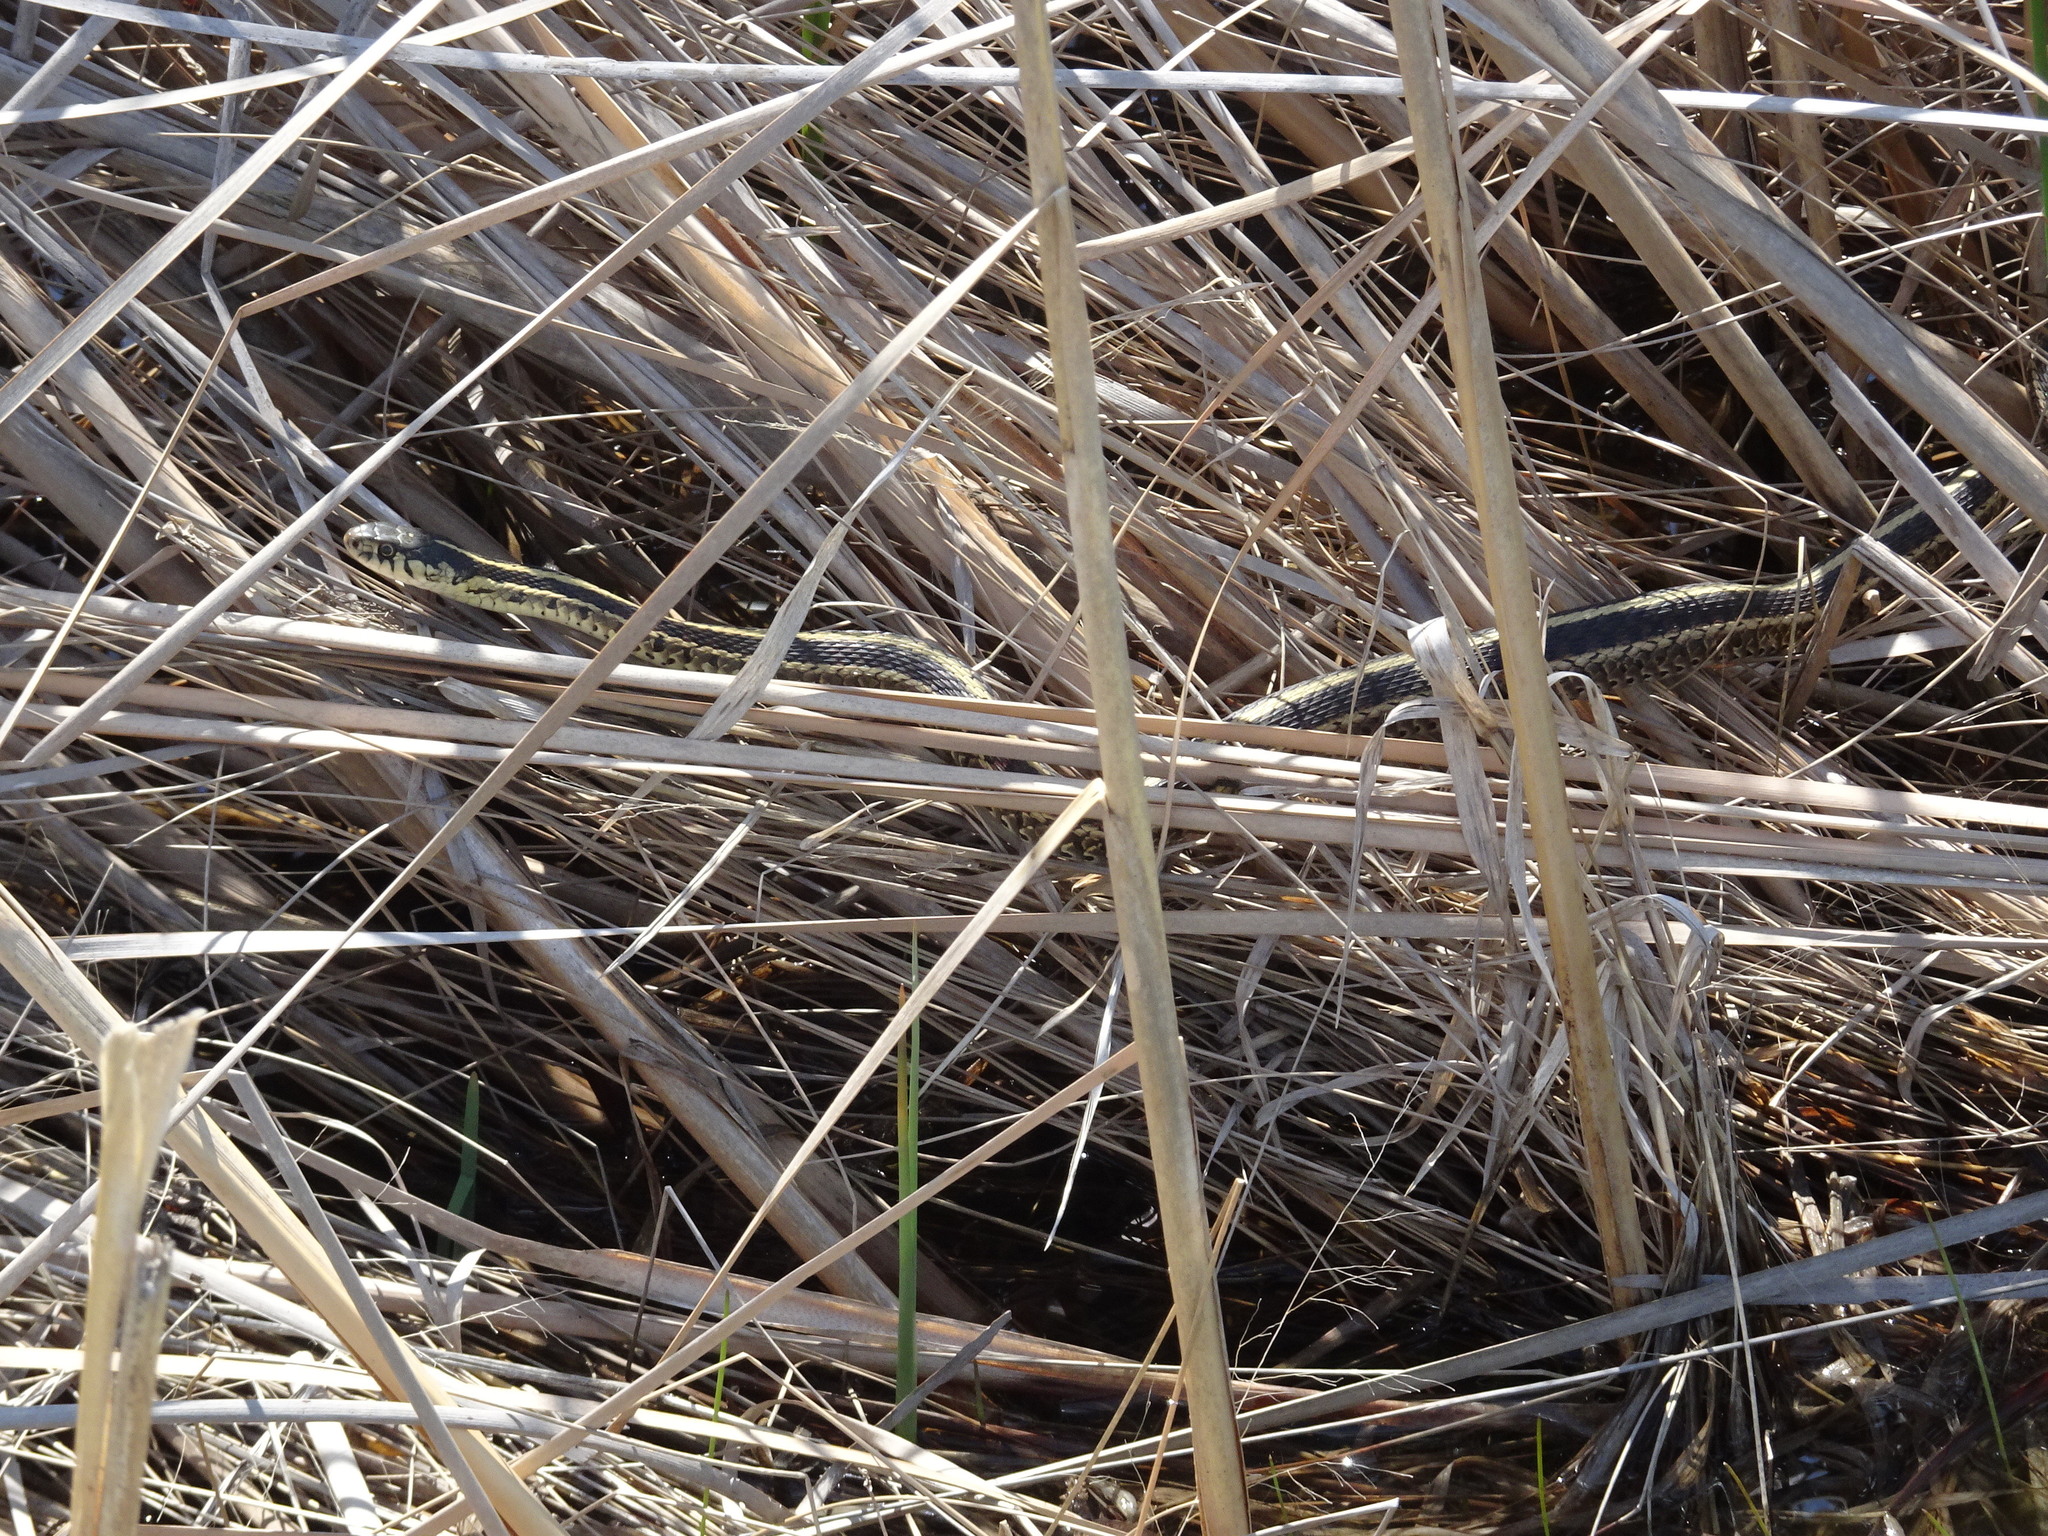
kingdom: Animalia
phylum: Chordata
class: Squamata
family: Colubridae
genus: Thamnophis
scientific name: Thamnophis sirtalis
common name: Common garter snake
